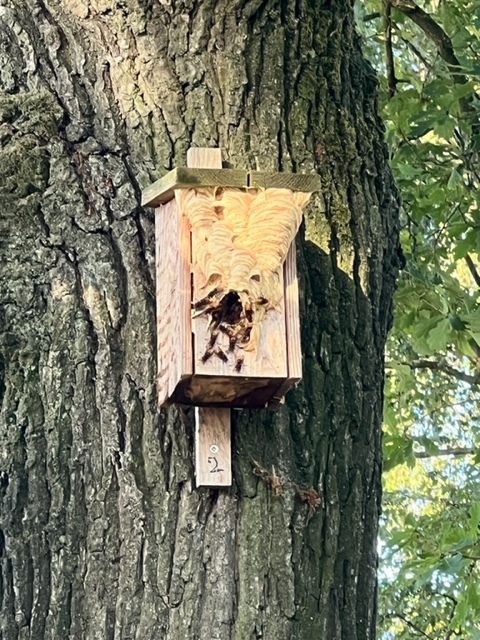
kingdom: Animalia
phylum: Arthropoda
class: Insecta
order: Hymenoptera
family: Vespidae
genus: Vespa
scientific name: Vespa crabro
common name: Hornet
